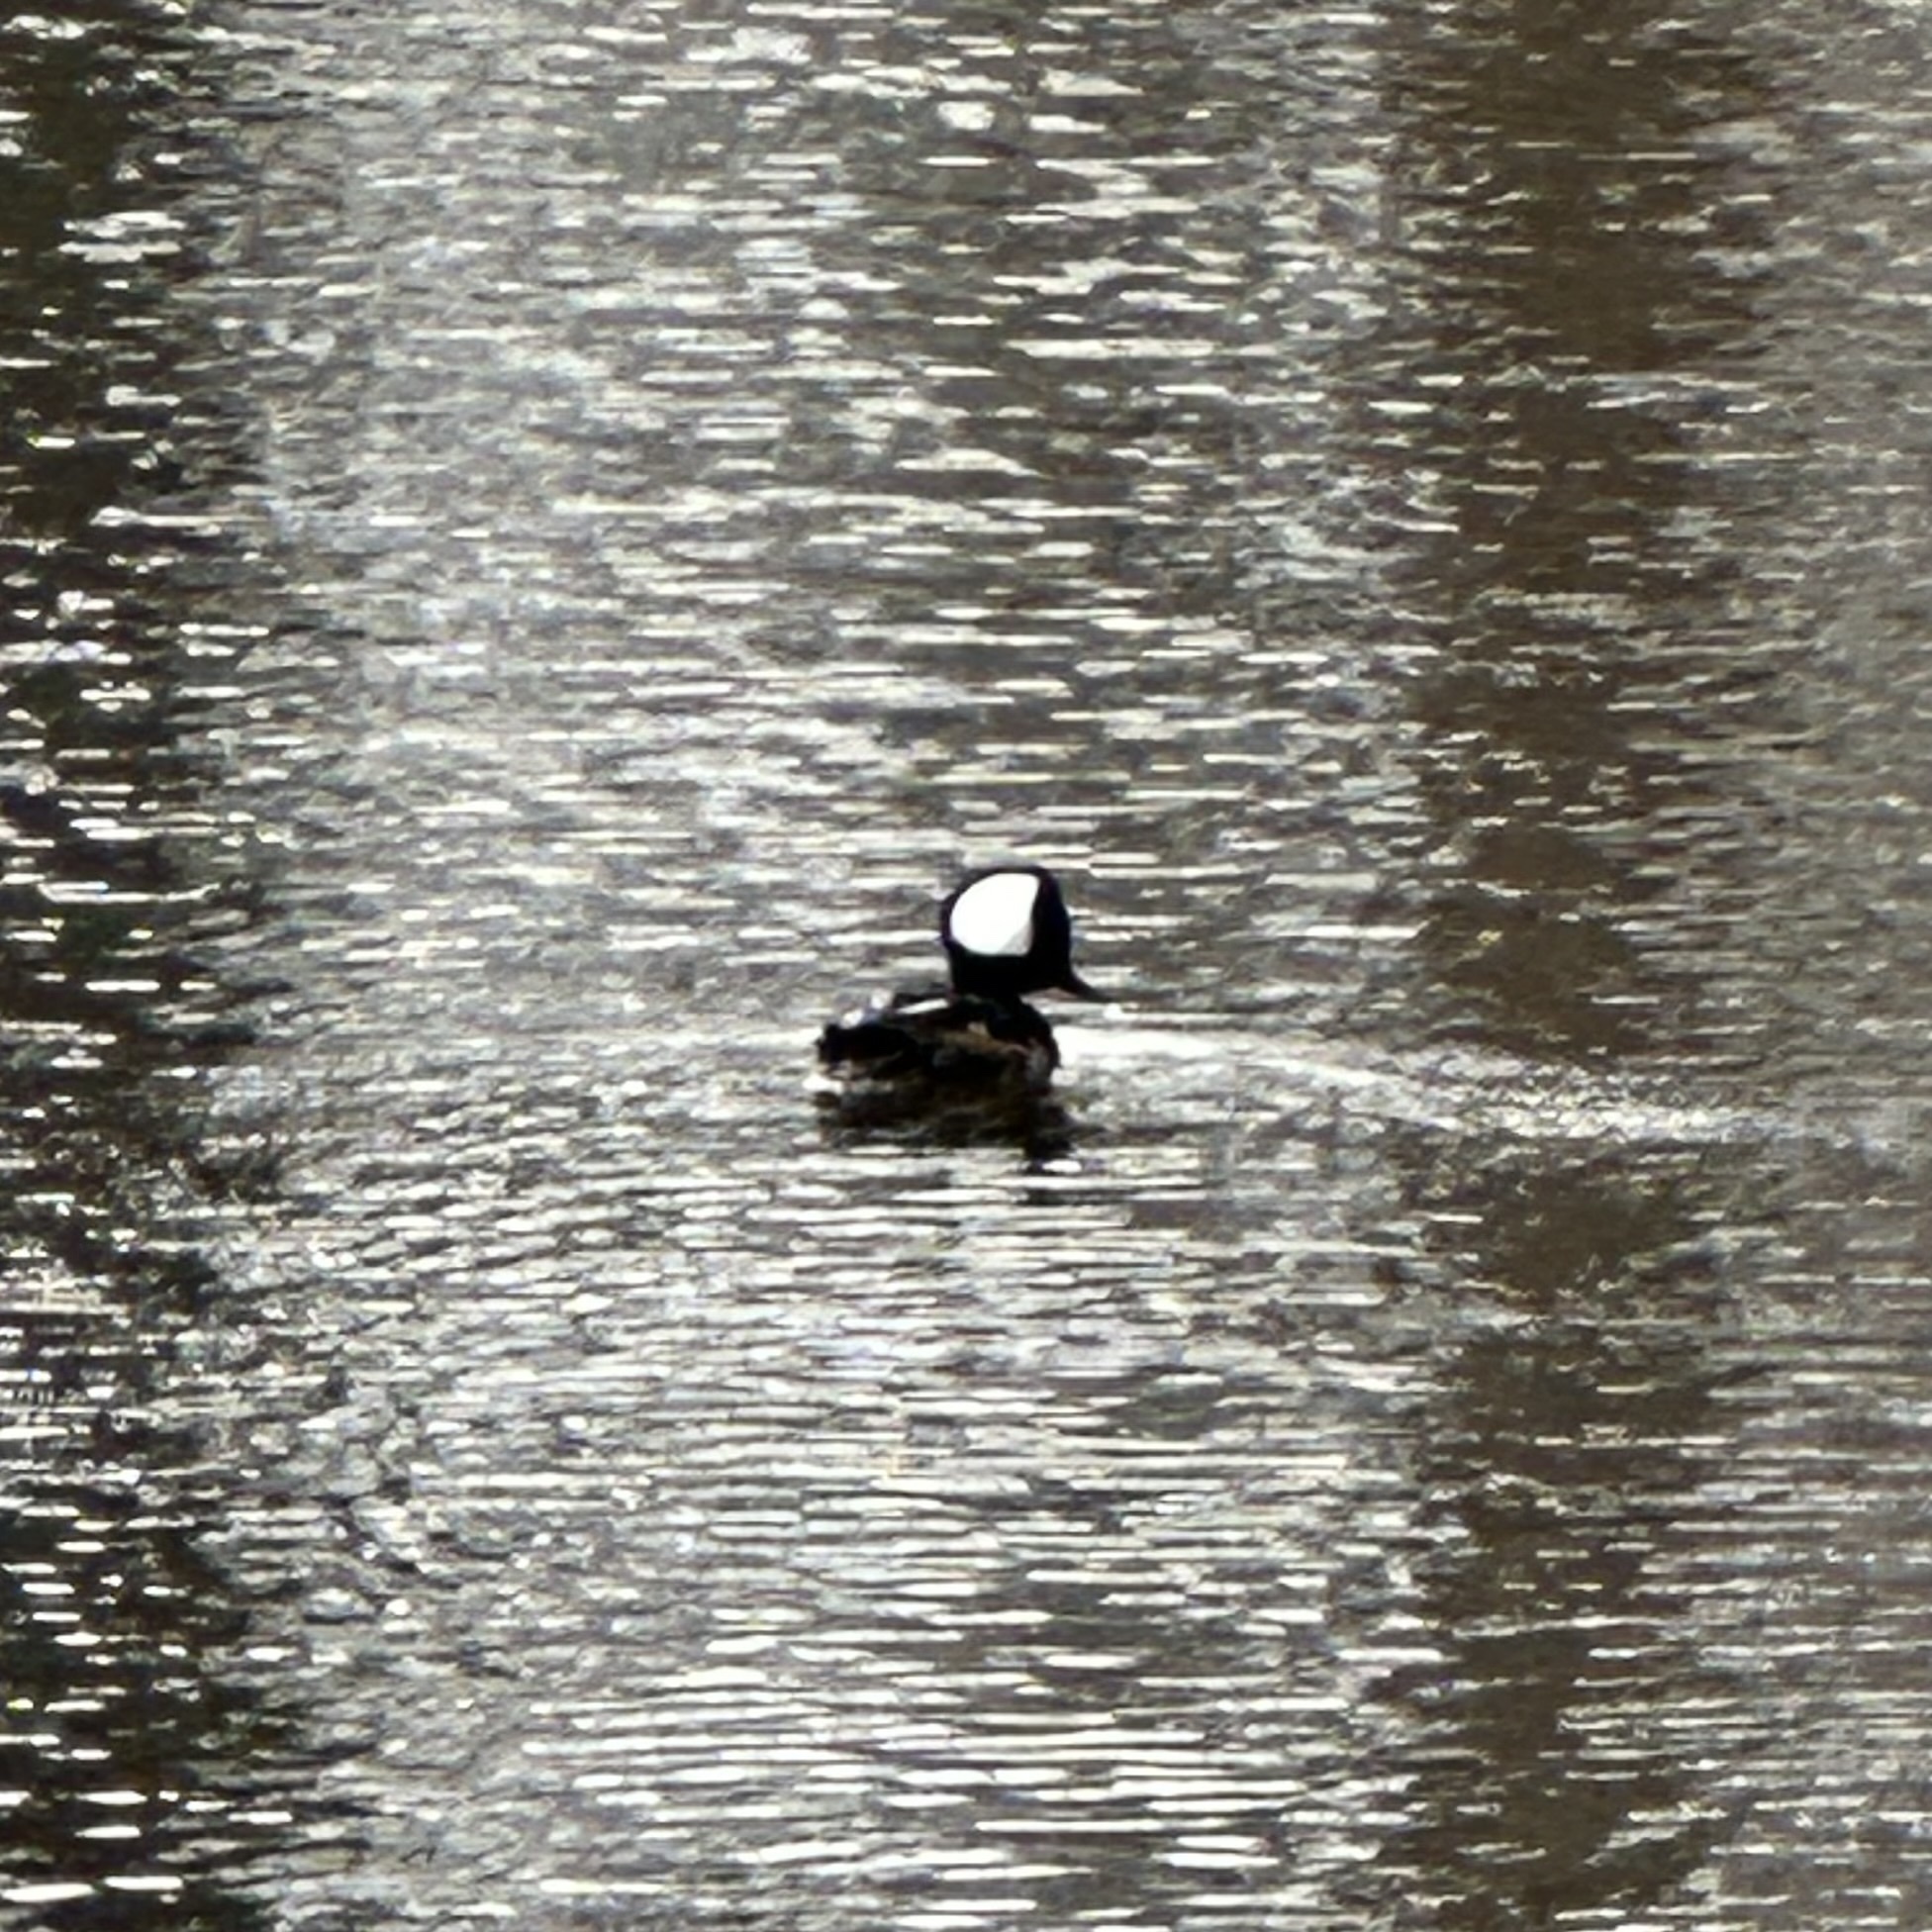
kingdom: Animalia
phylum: Chordata
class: Aves
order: Anseriformes
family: Anatidae
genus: Lophodytes
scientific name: Lophodytes cucullatus
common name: Hooded merganser
